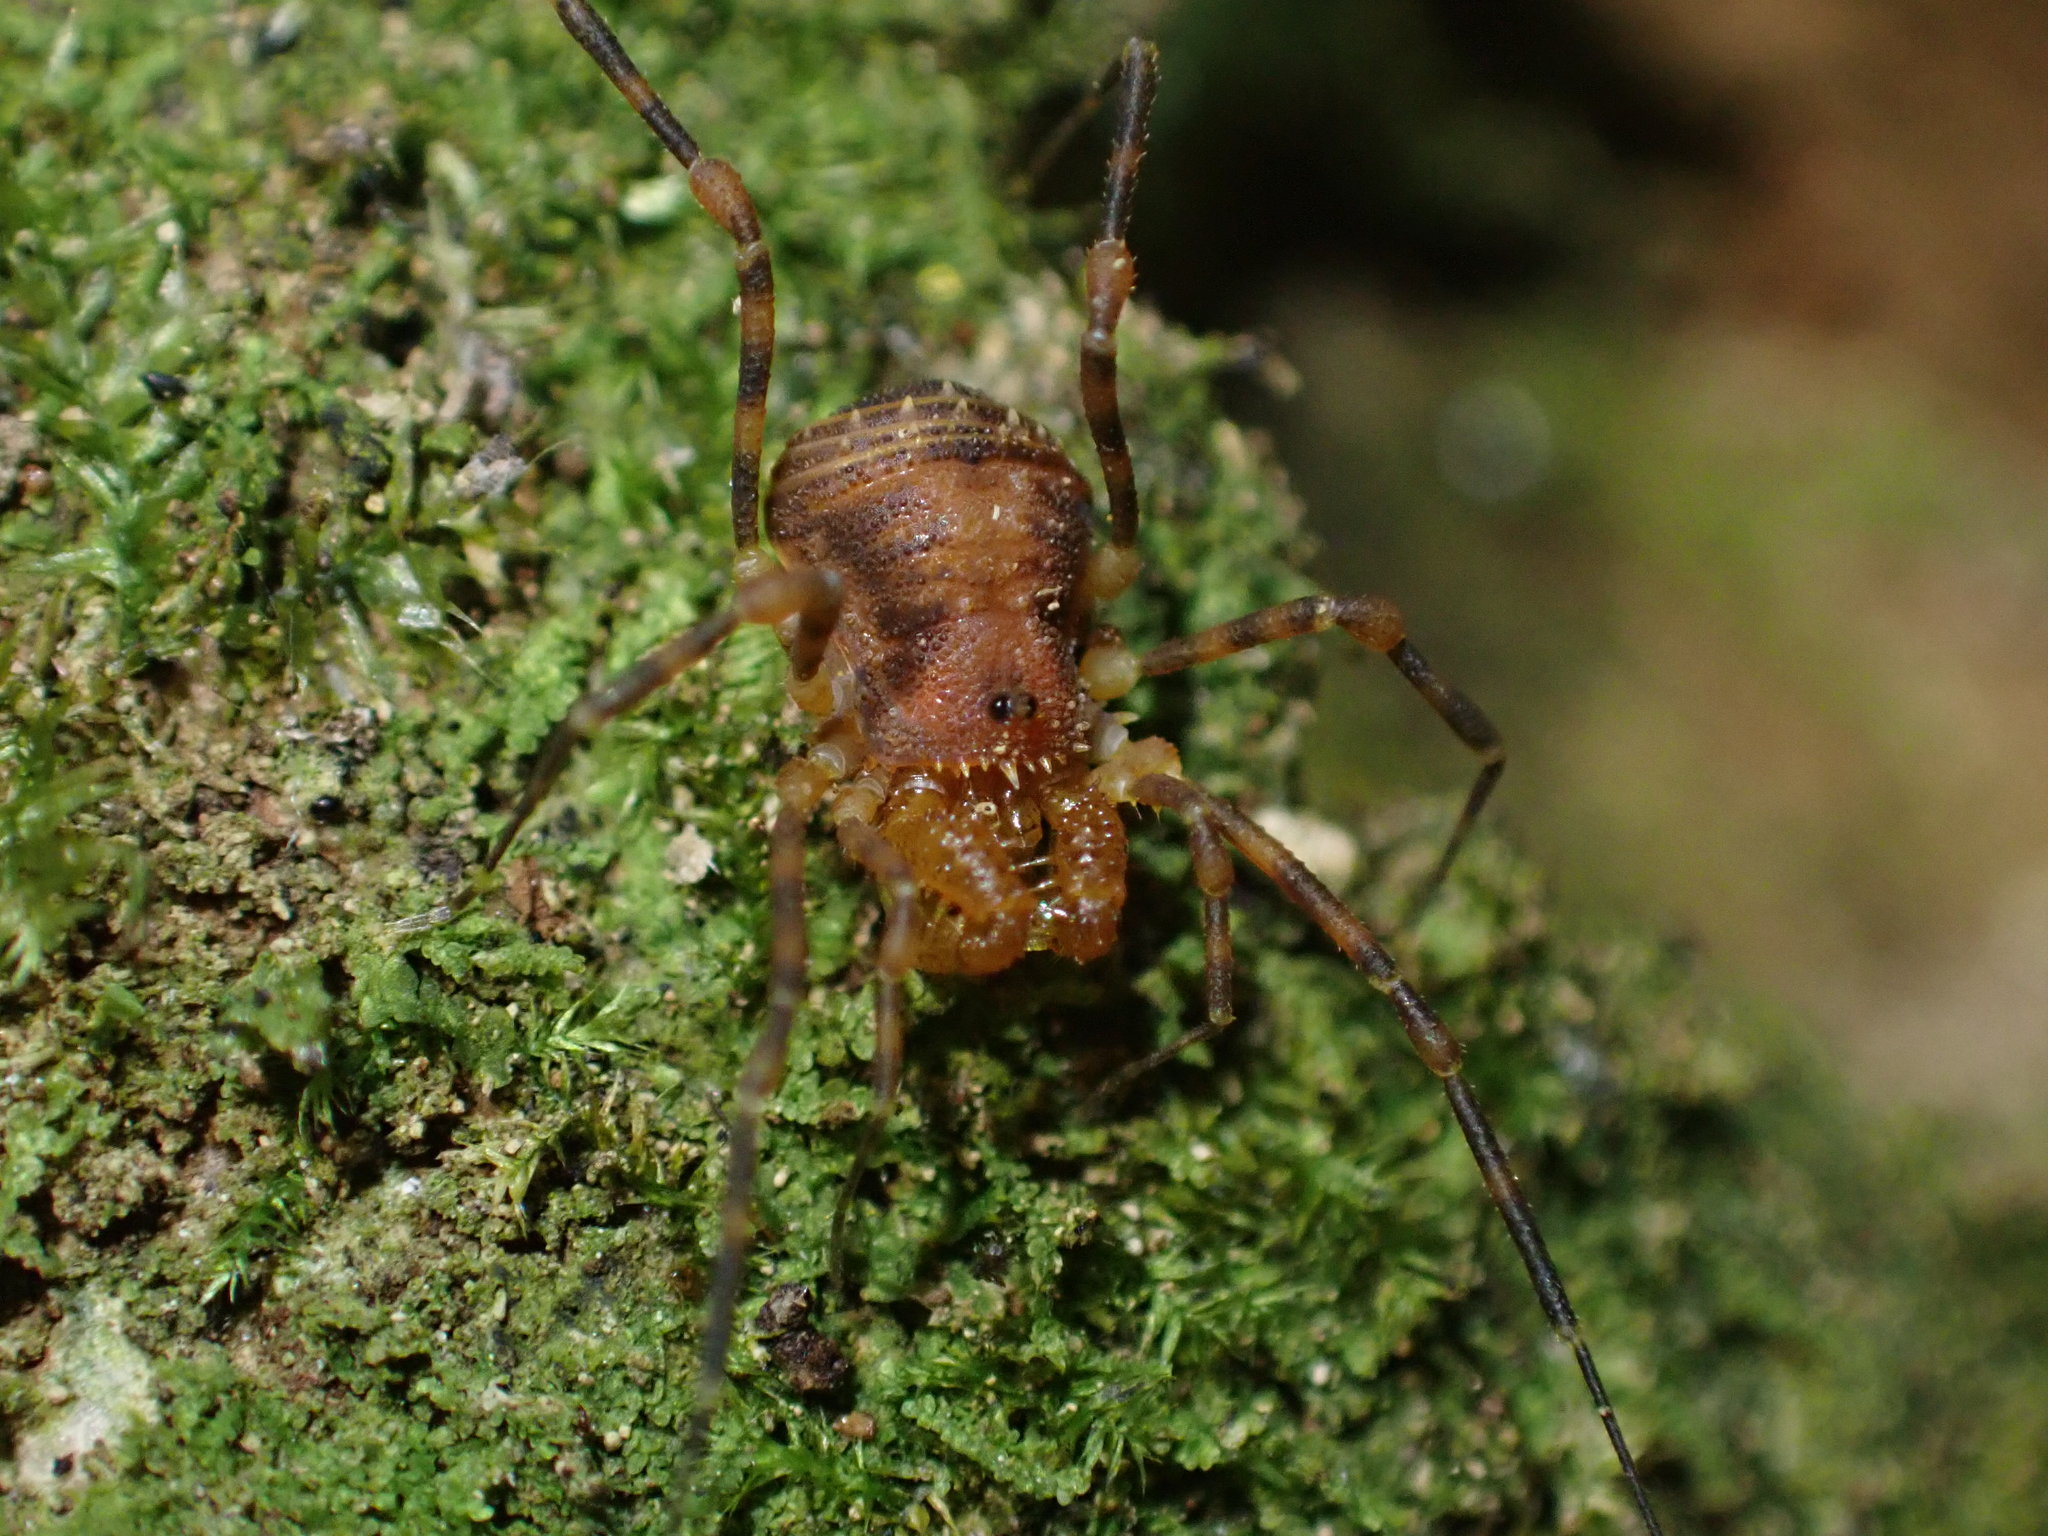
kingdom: Animalia
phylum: Arthropoda
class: Arachnida
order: Opiliones
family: Triaenonychidae
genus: Prasma
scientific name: Prasma tuberculata
